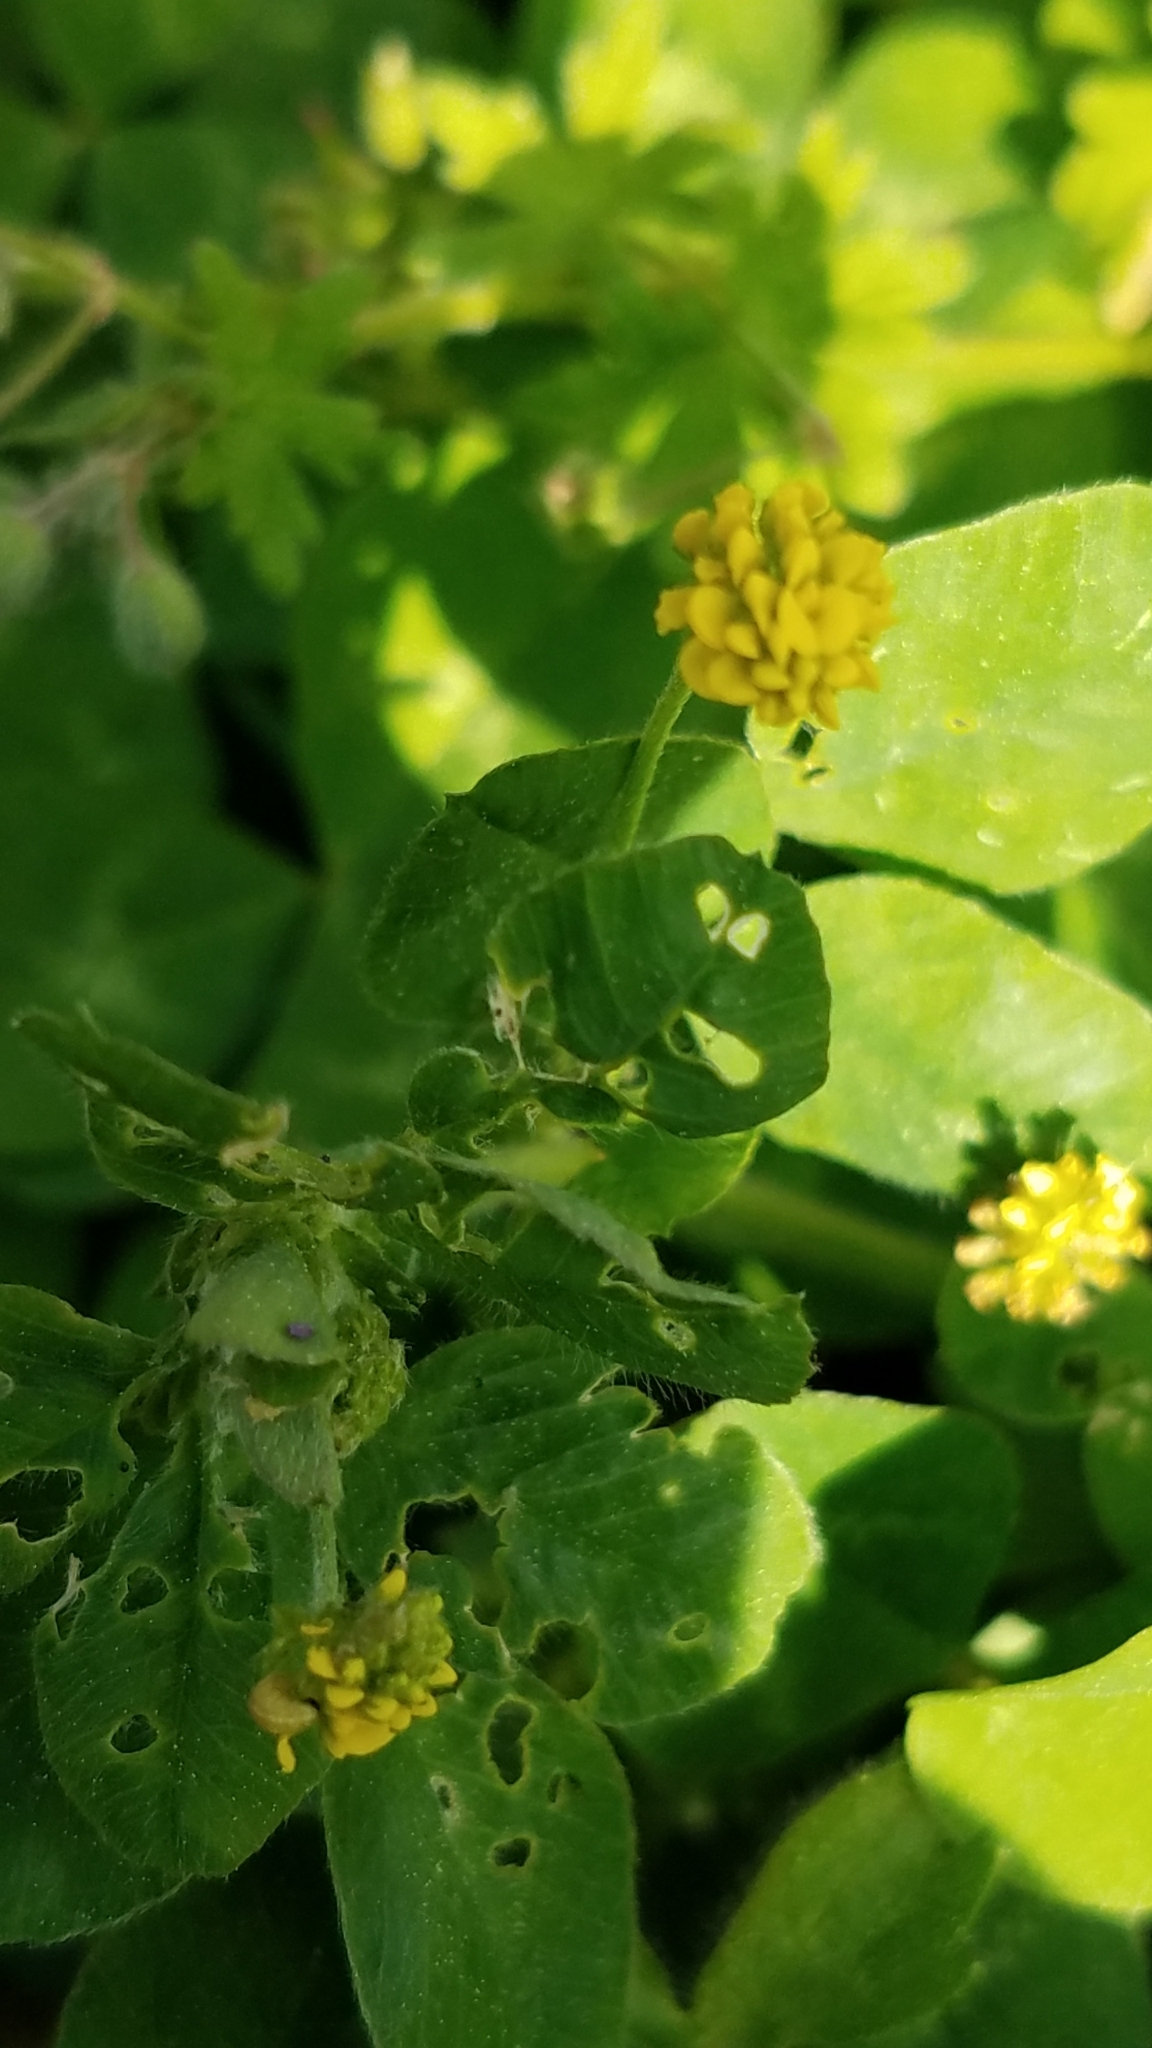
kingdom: Plantae
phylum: Tracheophyta
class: Magnoliopsida
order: Fabales
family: Fabaceae
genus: Medicago
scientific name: Medicago lupulina
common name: Black medick
